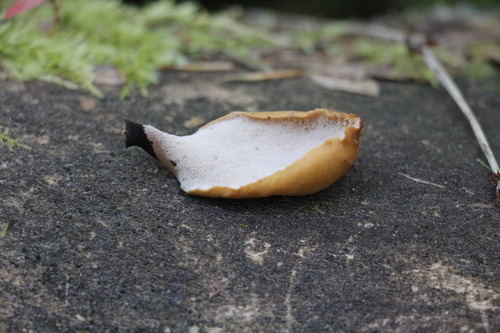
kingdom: Fungi
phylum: Basidiomycota
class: Agaricomycetes
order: Polyporales
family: Polyporaceae
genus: Cerioporus
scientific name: Cerioporus varius
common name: Elegant polypore
